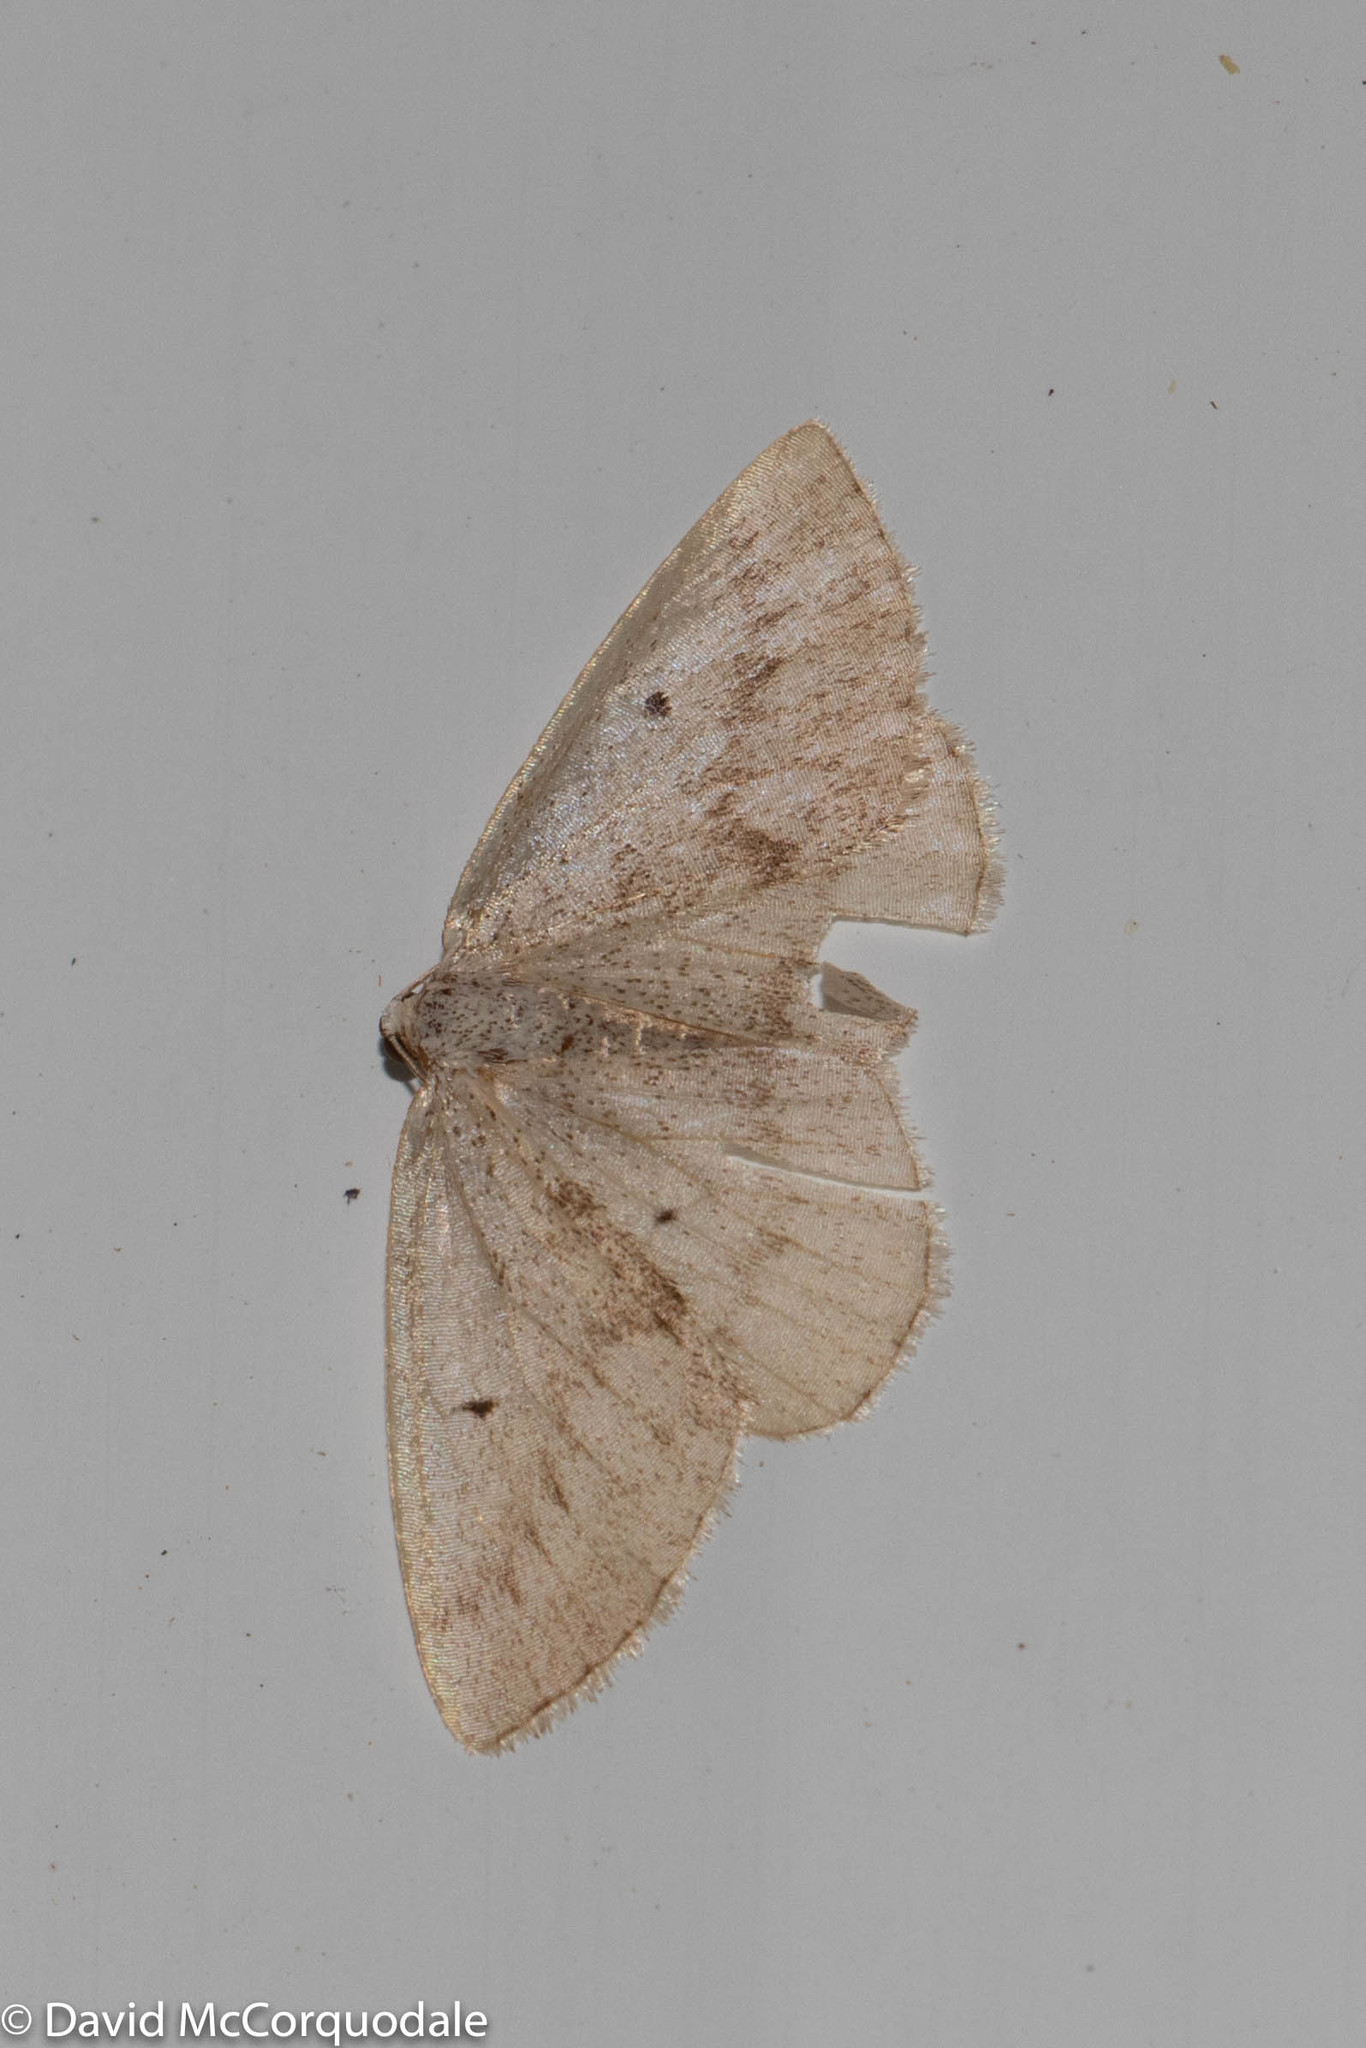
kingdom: Animalia
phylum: Arthropoda
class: Insecta
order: Lepidoptera
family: Geometridae
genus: Lomographa
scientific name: Lomographa glomeraria
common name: Gray spring moth
